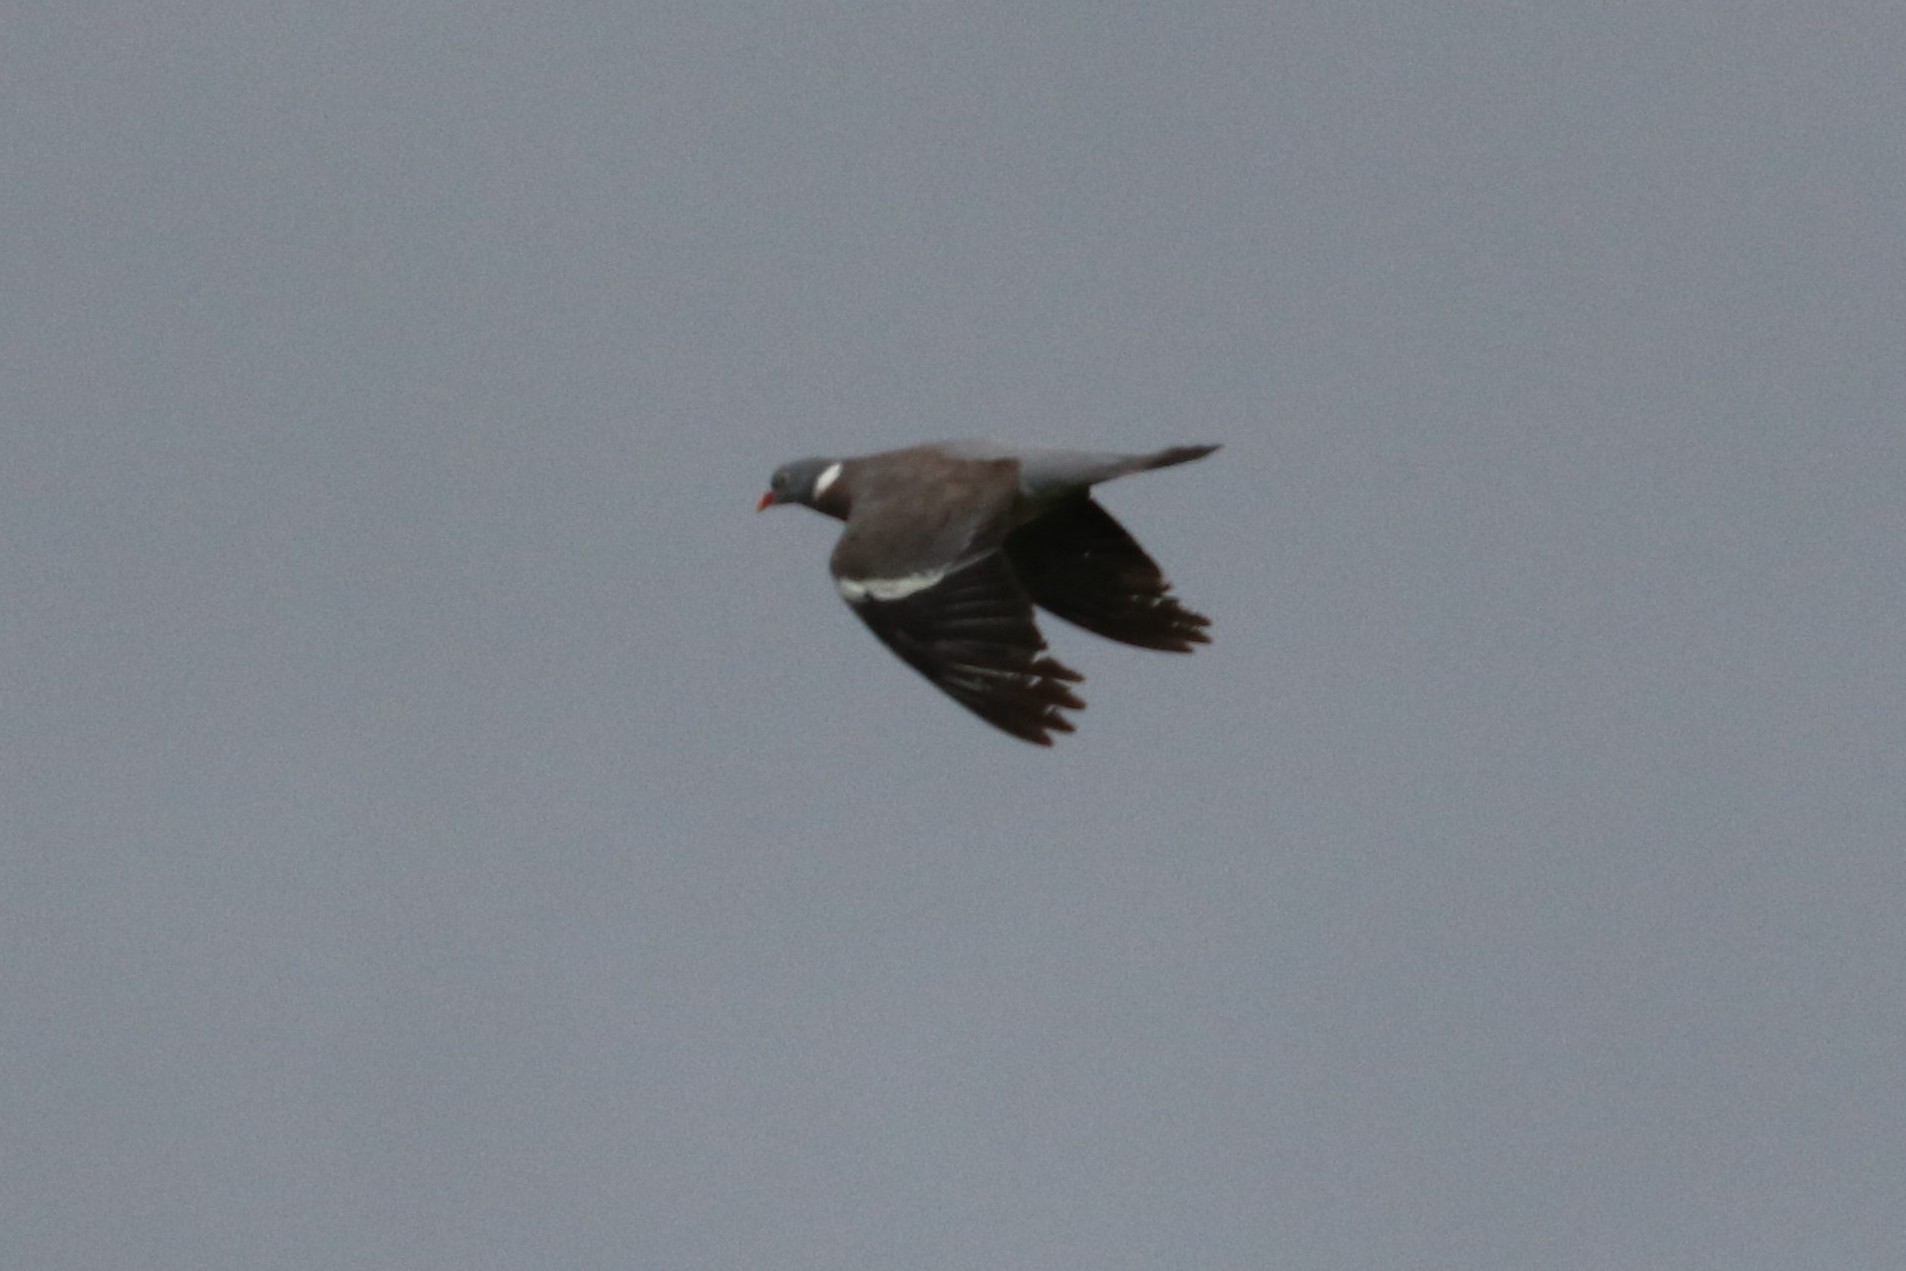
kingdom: Animalia
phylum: Chordata
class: Aves
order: Columbiformes
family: Columbidae
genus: Columba
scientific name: Columba palumbus
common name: Common wood pigeon
